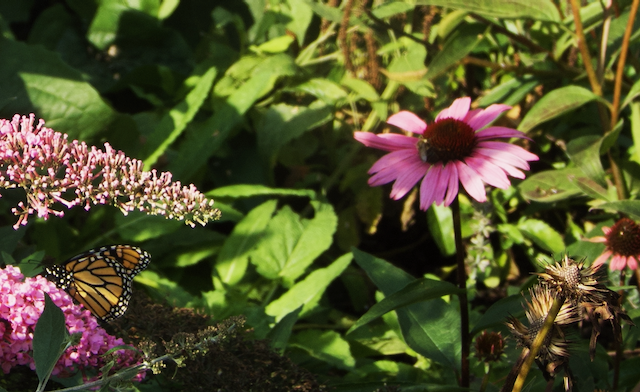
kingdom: Animalia
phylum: Arthropoda
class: Insecta
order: Lepidoptera
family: Nymphalidae
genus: Danaus
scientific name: Danaus plexippus
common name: Monarch
